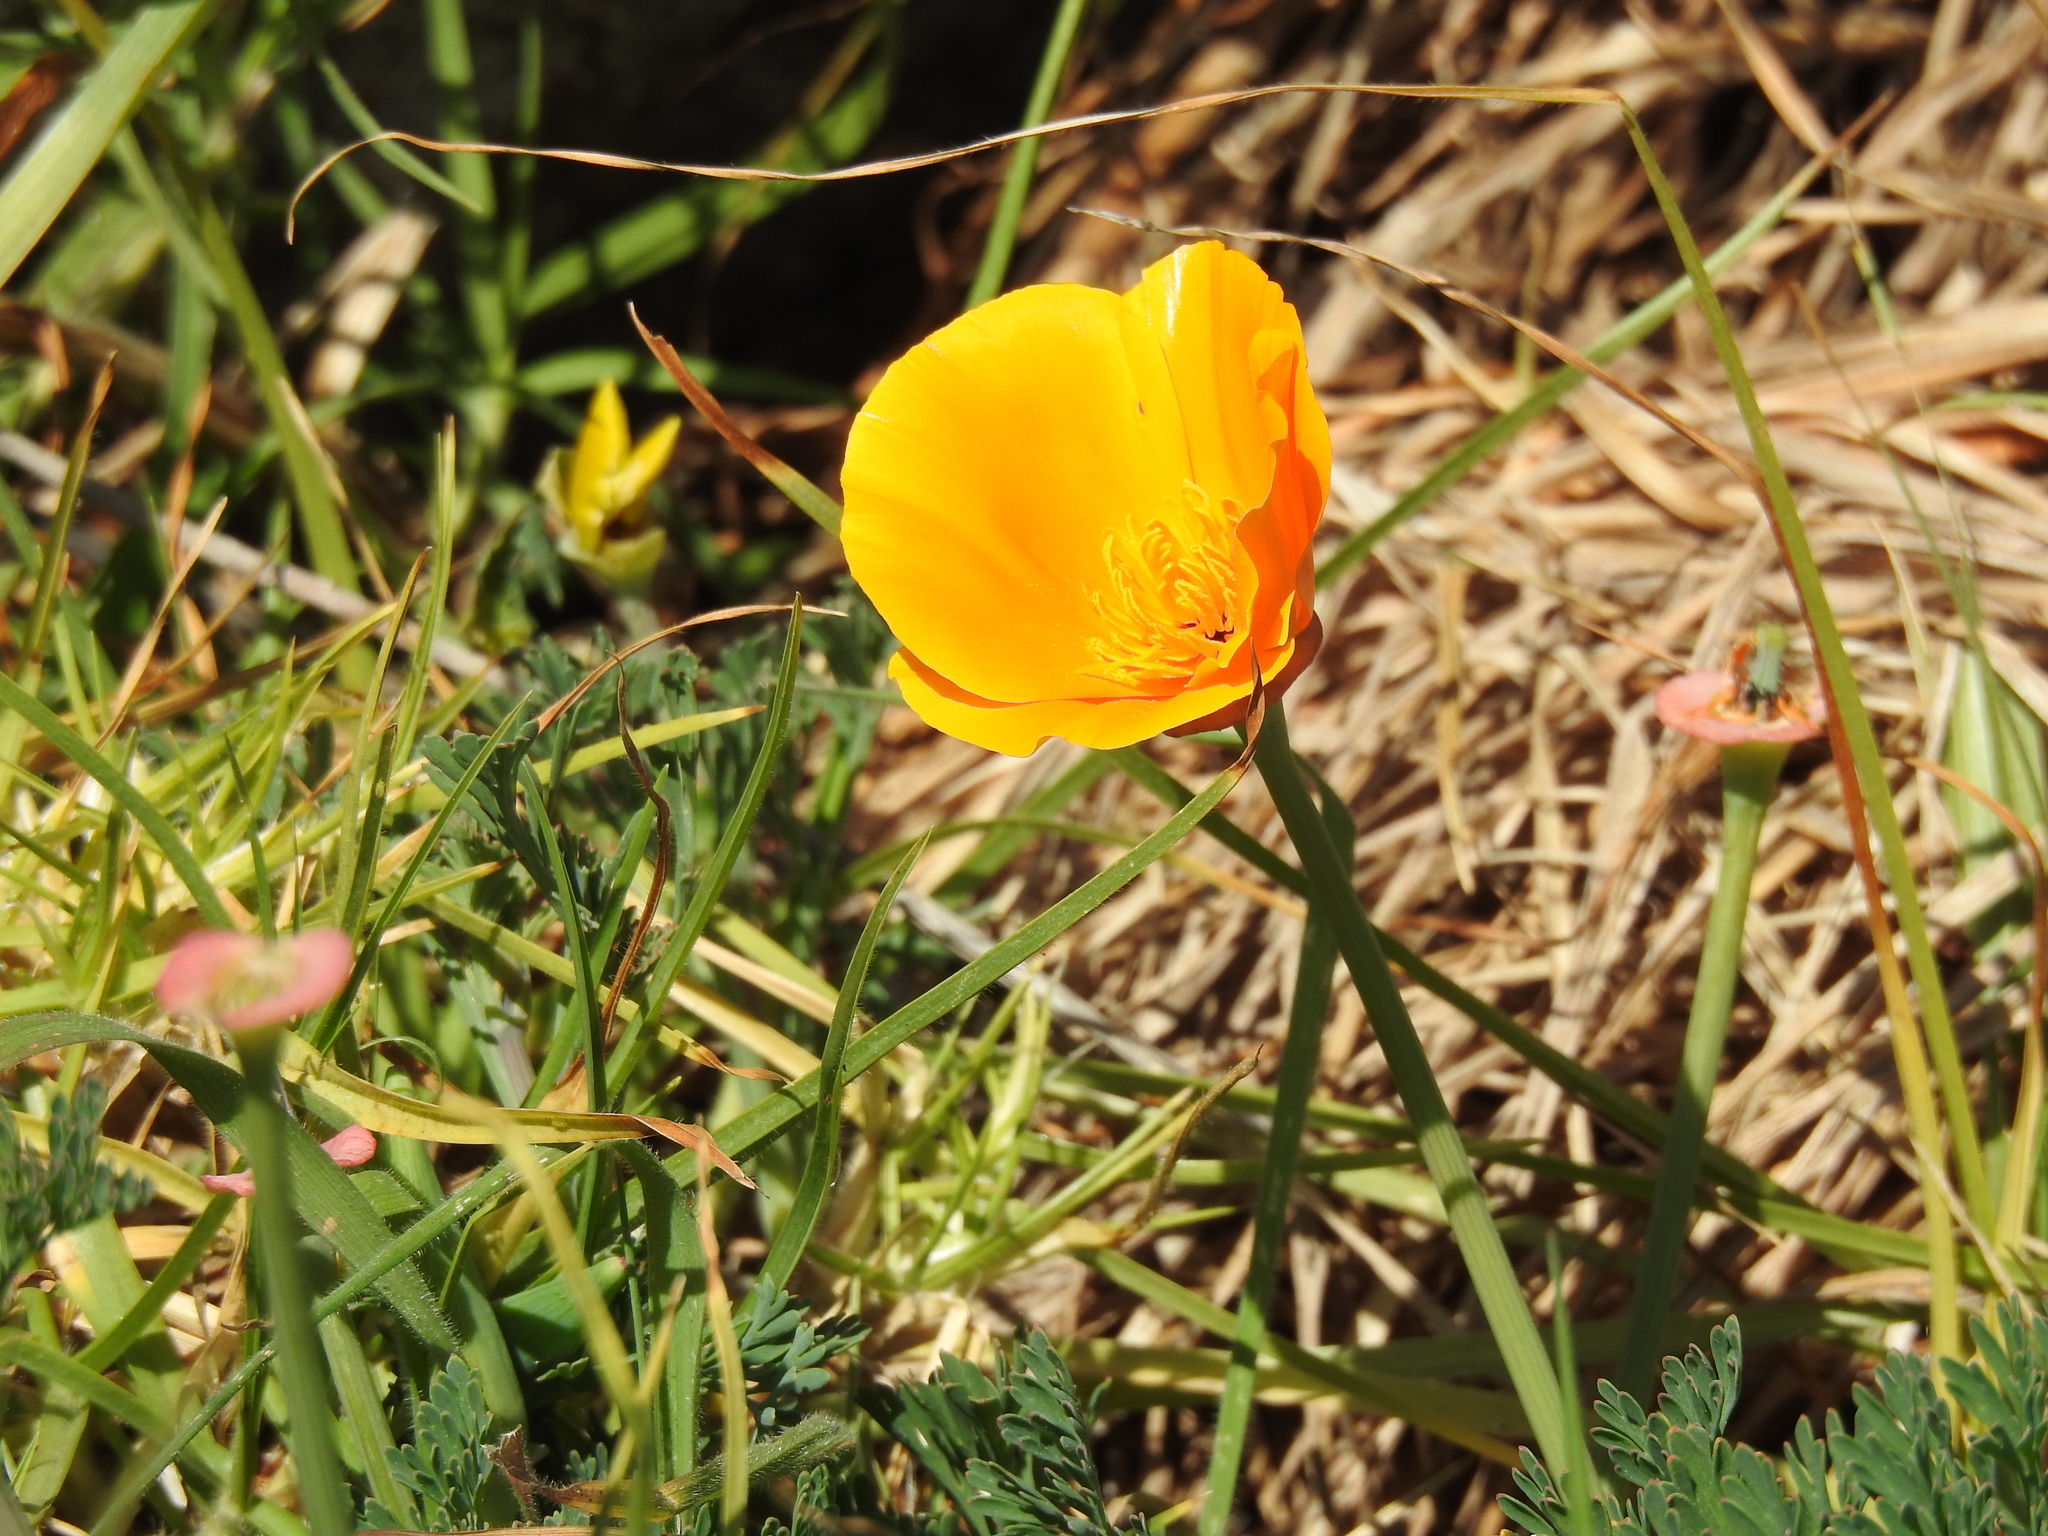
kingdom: Plantae
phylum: Tracheophyta
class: Magnoliopsida
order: Ranunculales
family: Papaveraceae
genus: Eschscholzia
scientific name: Eschscholzia californica
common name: California poppy
